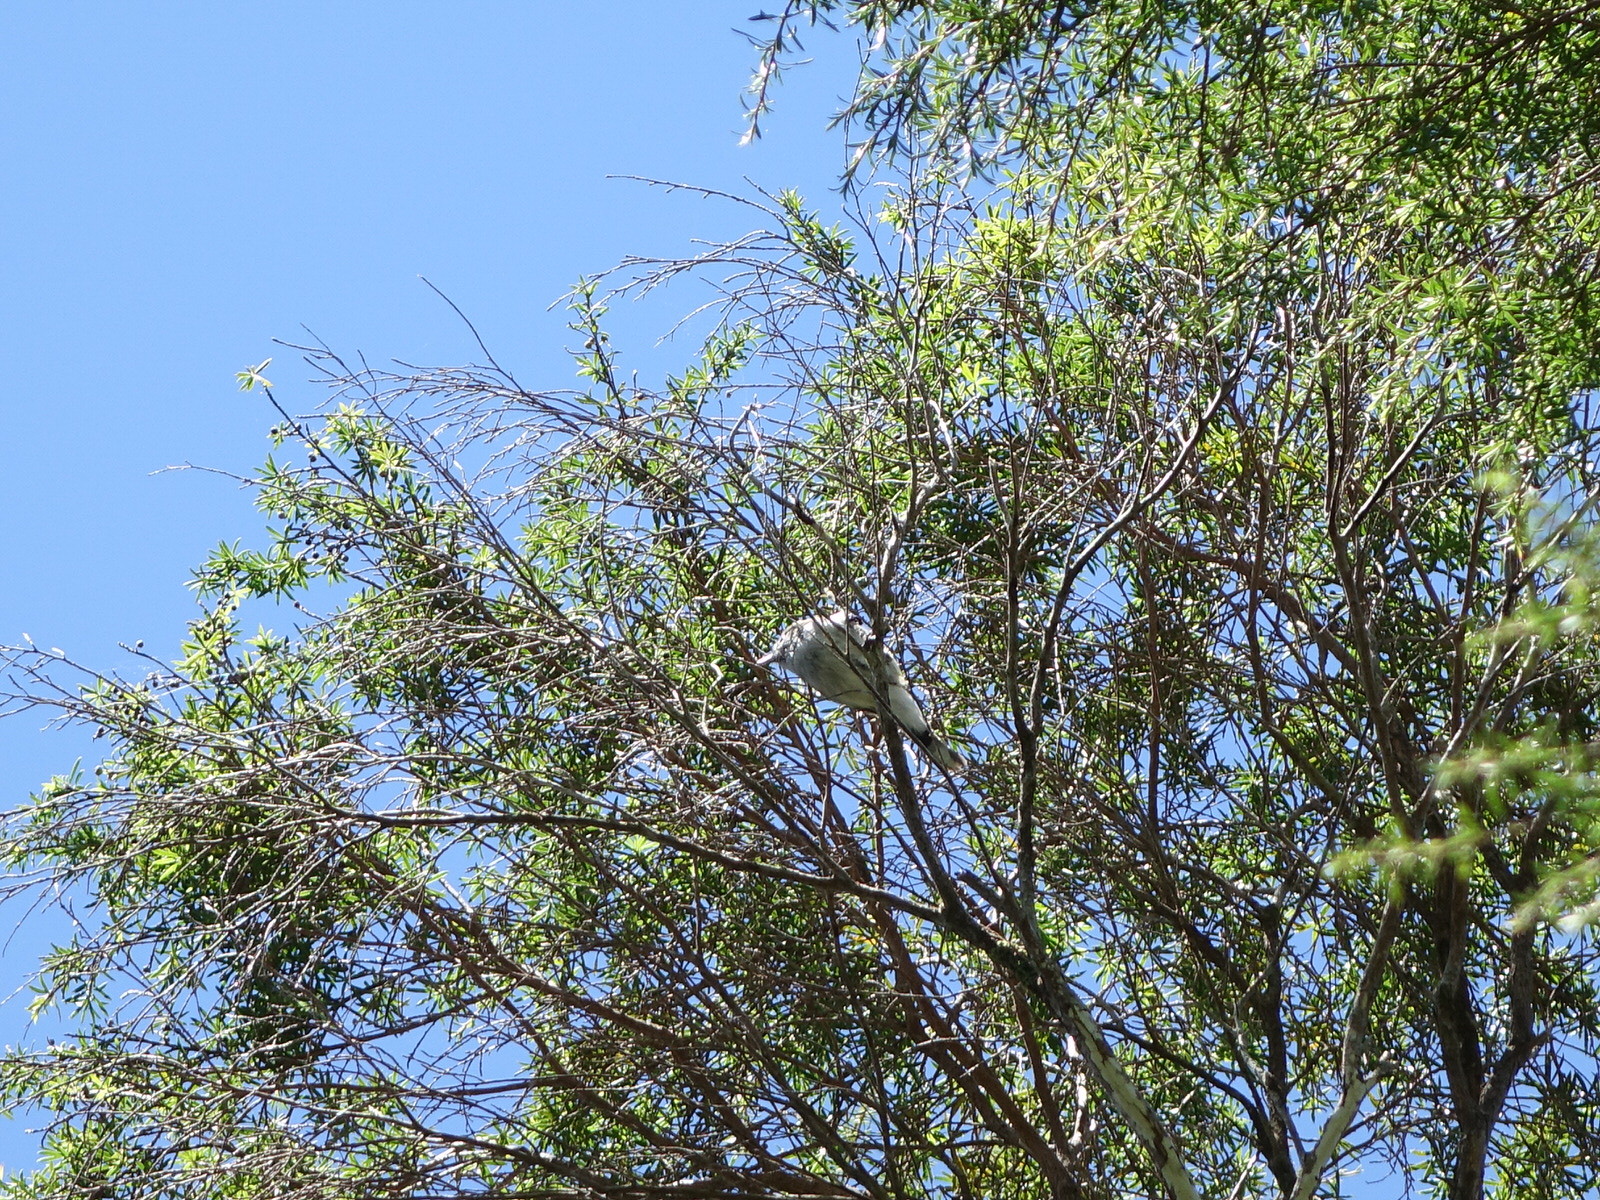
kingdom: Animalia
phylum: Chordata
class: Aves
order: Passeriformes
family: Acanthizidae
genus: Gerygone
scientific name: Gerygone igata
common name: Grey gerygone
